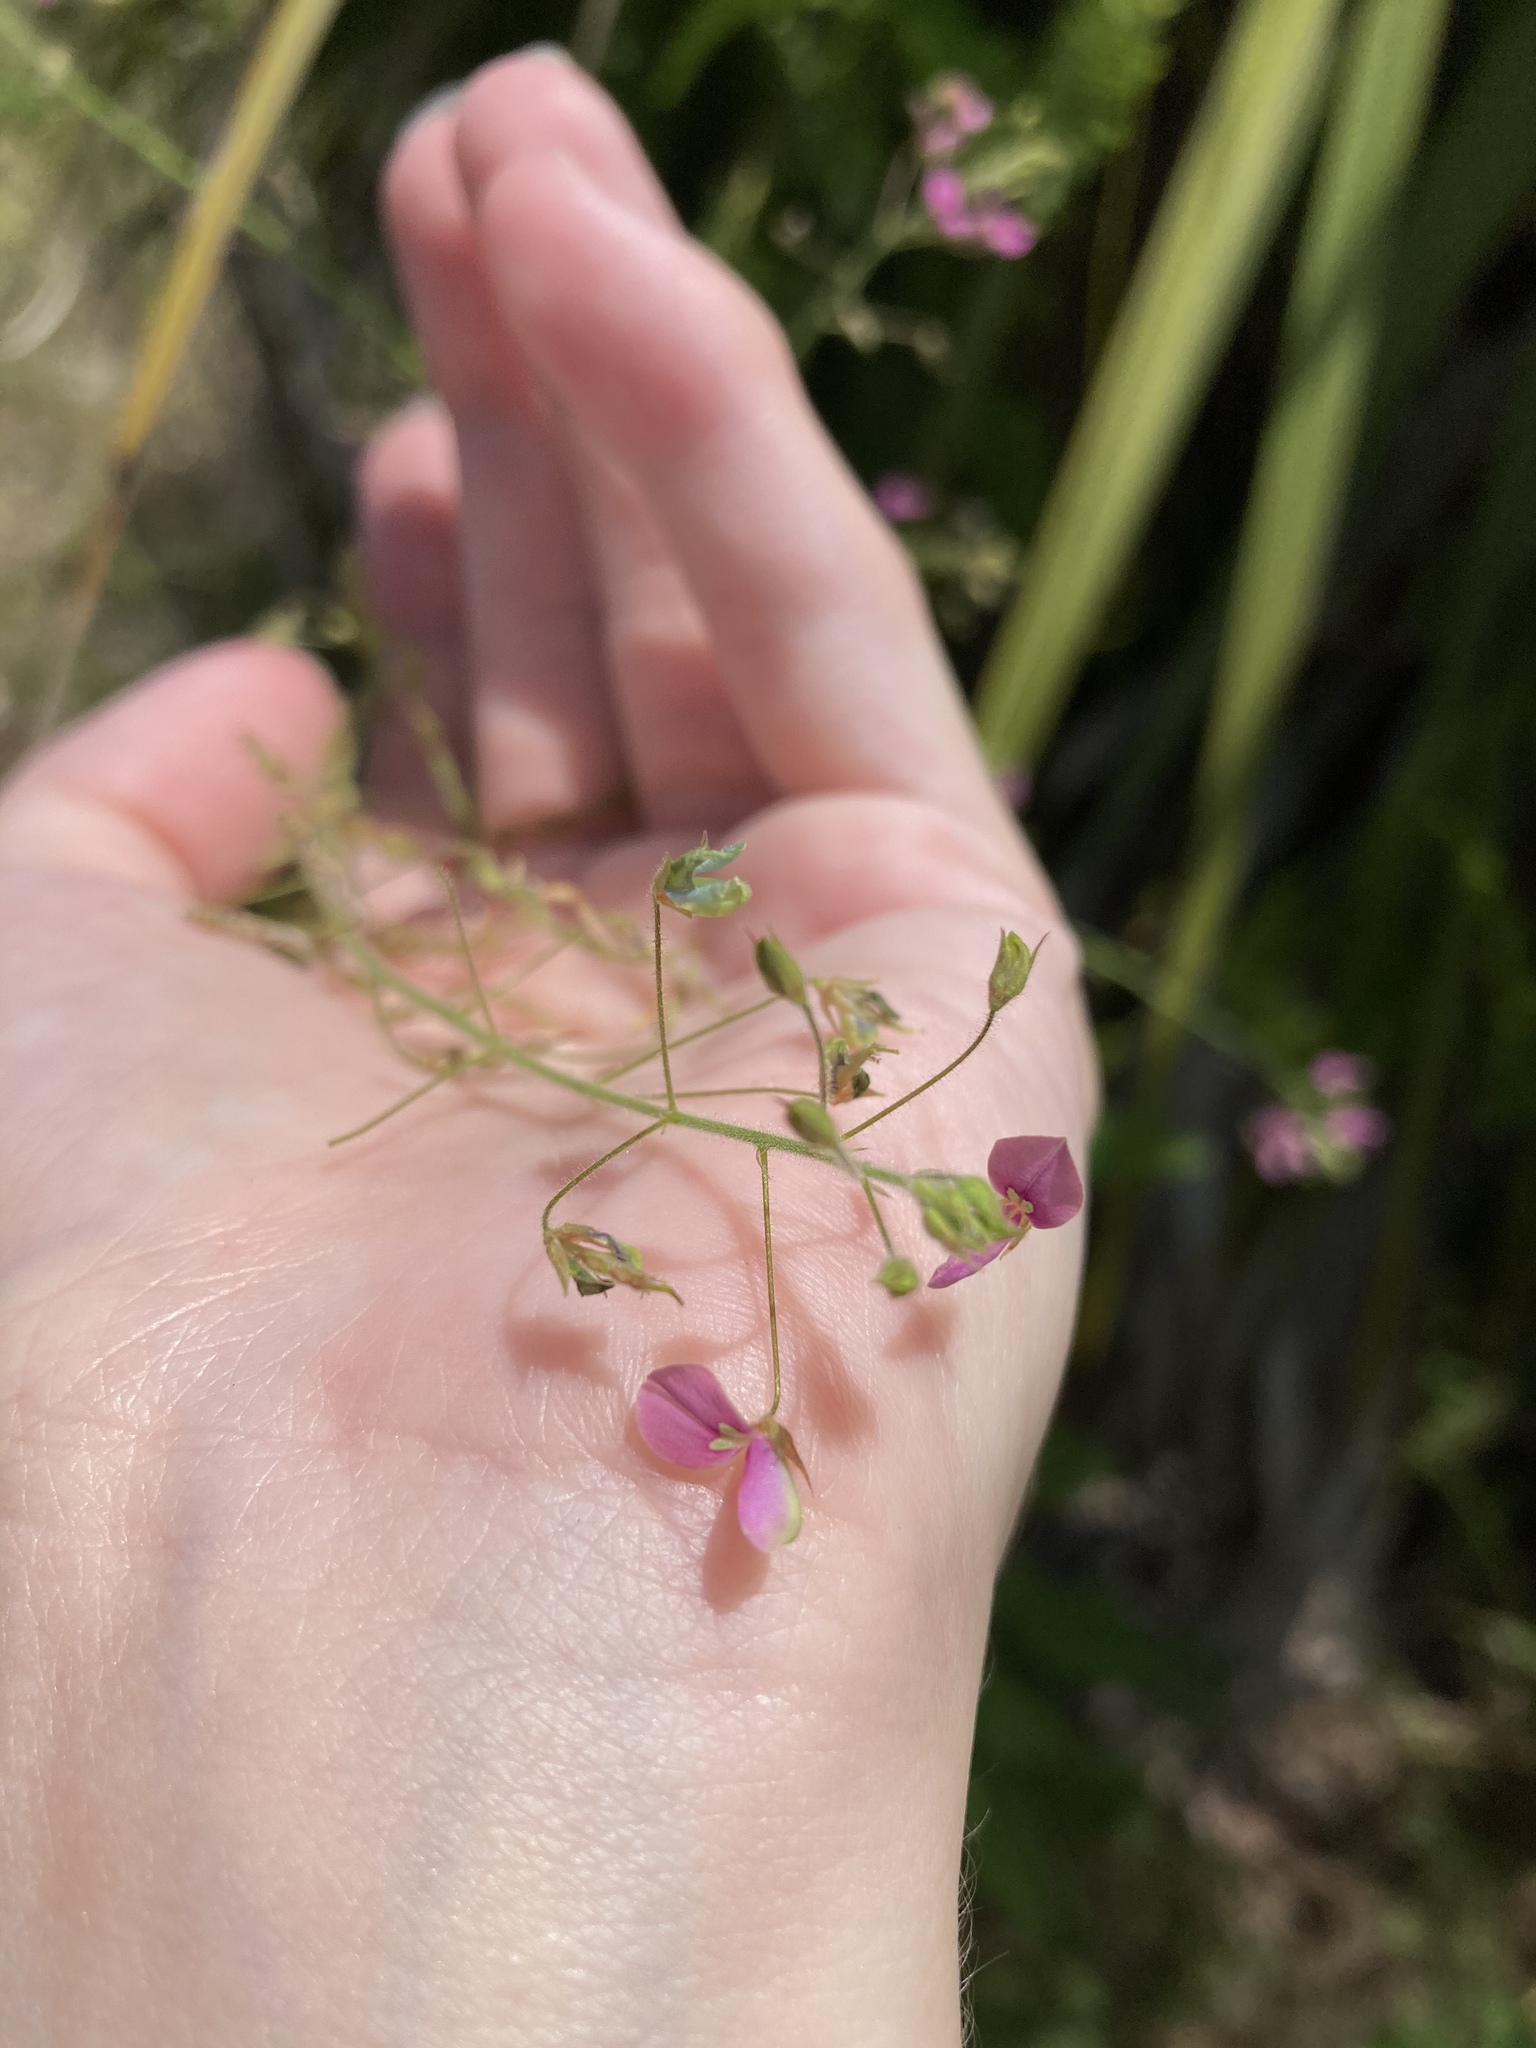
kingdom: Plantae
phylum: Tracheophyta
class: Magnoliopsida
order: Fabales
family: Fabaceae
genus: Desmodium
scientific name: Desmodium tortuosum
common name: Dixie ticktrefoil
